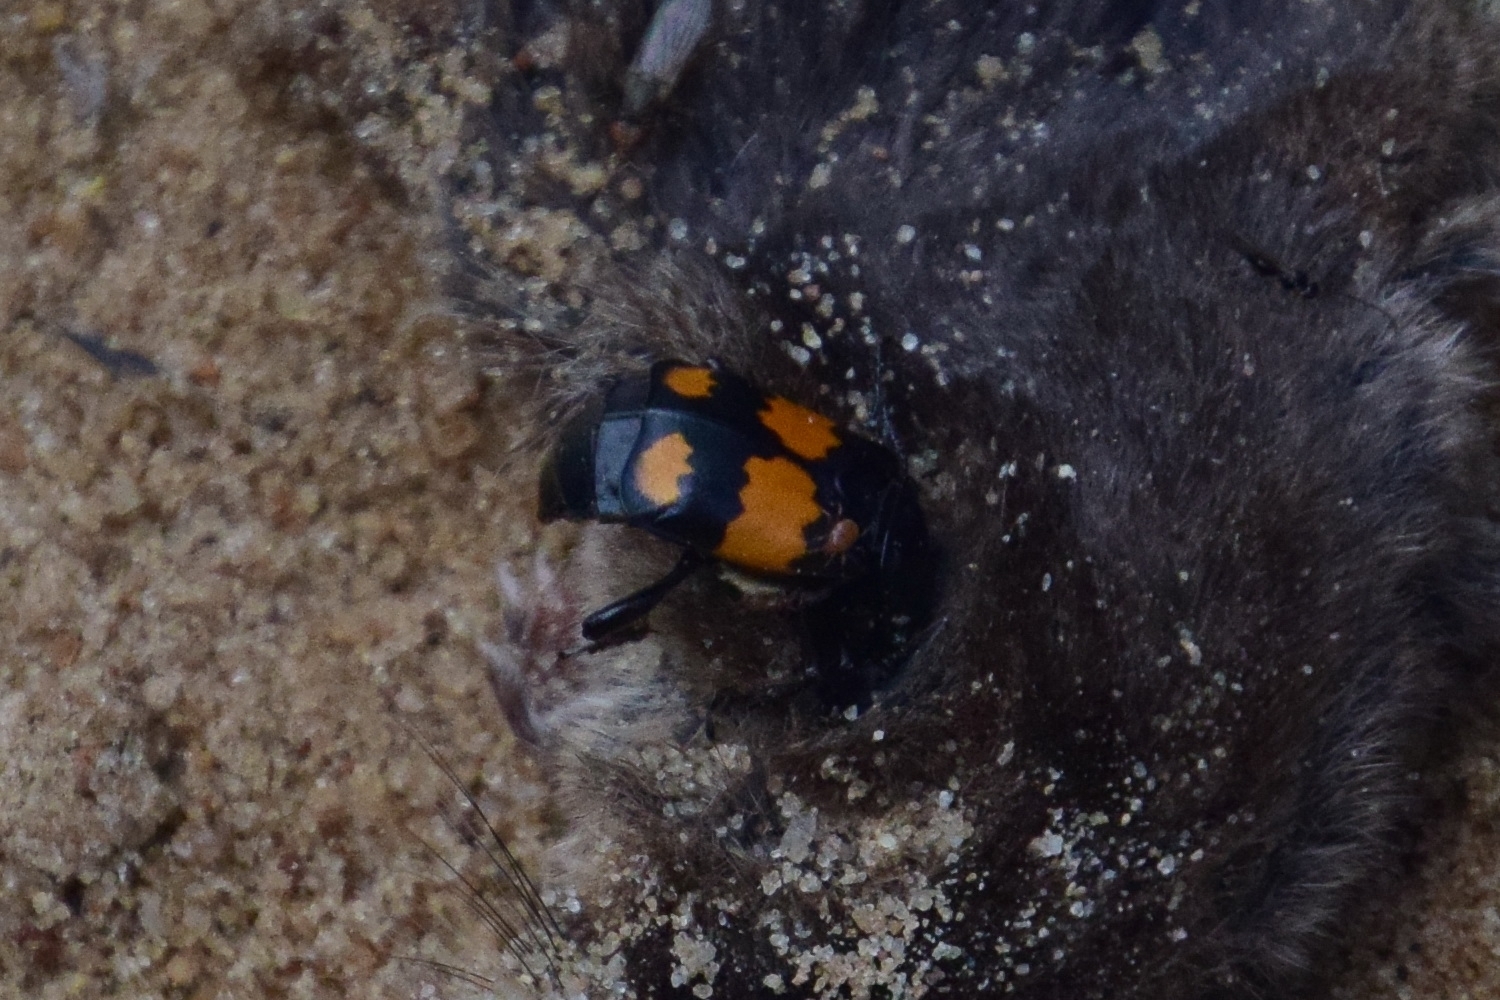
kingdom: Animalia
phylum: Arthropoda
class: Insecta
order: Coleoptera
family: Staphylinidae
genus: Nicrophorus
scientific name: Nicrophorus vespilloides
